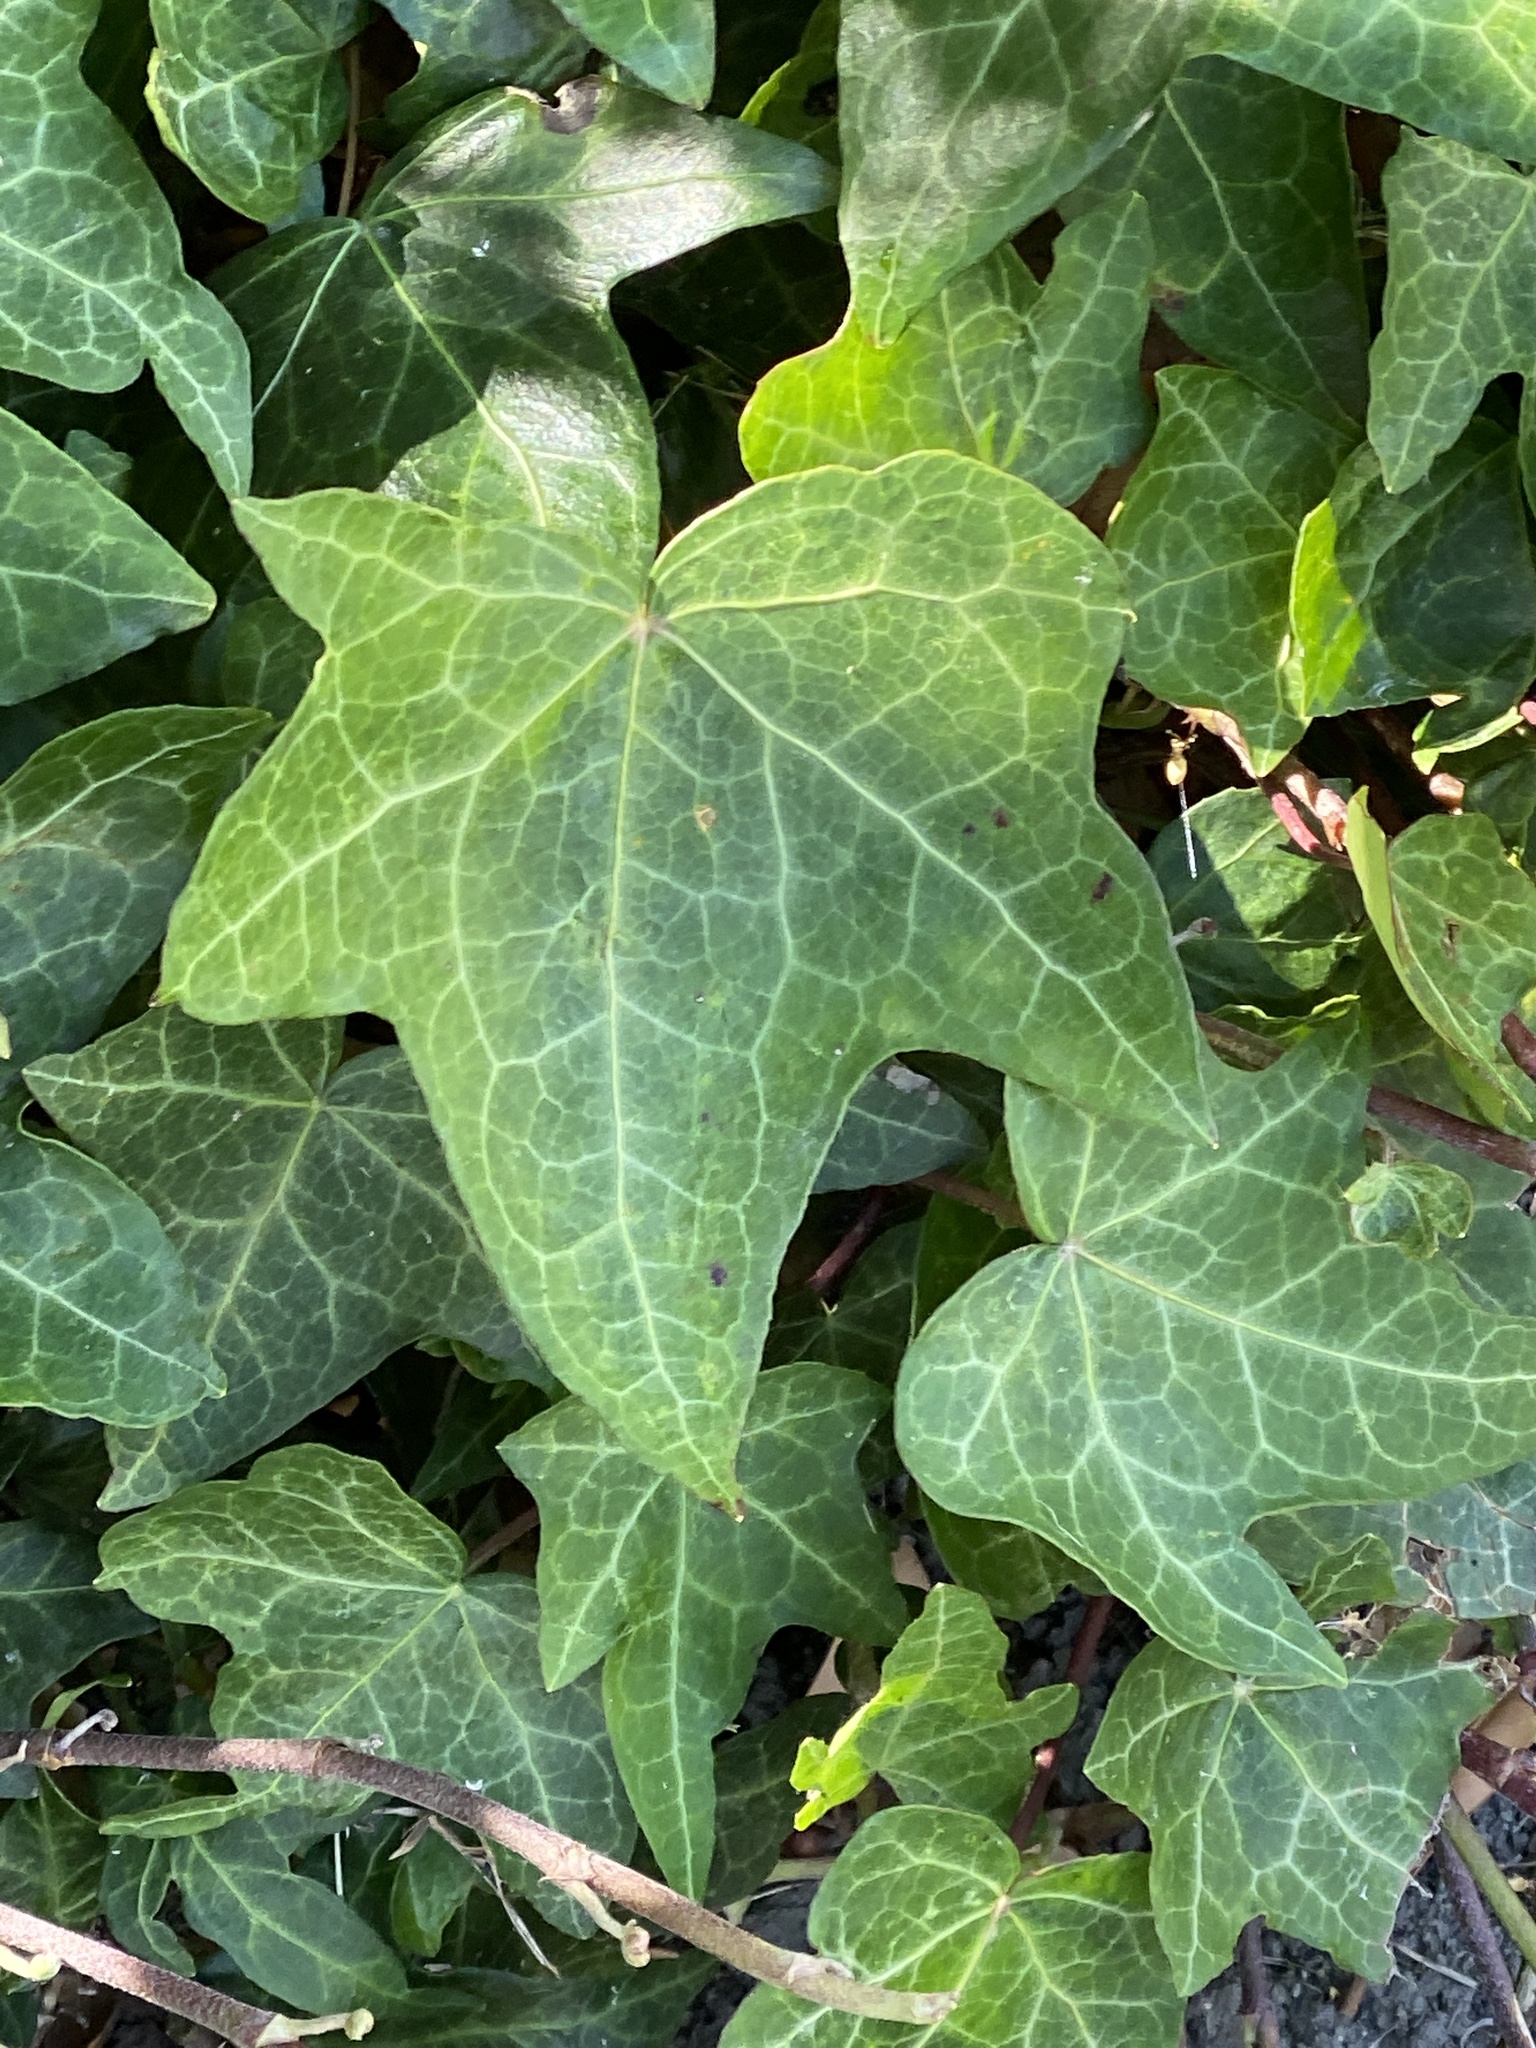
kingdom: Plantae
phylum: Tracheophyta
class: Magnoliopsida
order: Apiales
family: Araliaceae
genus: Hedera
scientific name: Hedera helix
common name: Ivy
